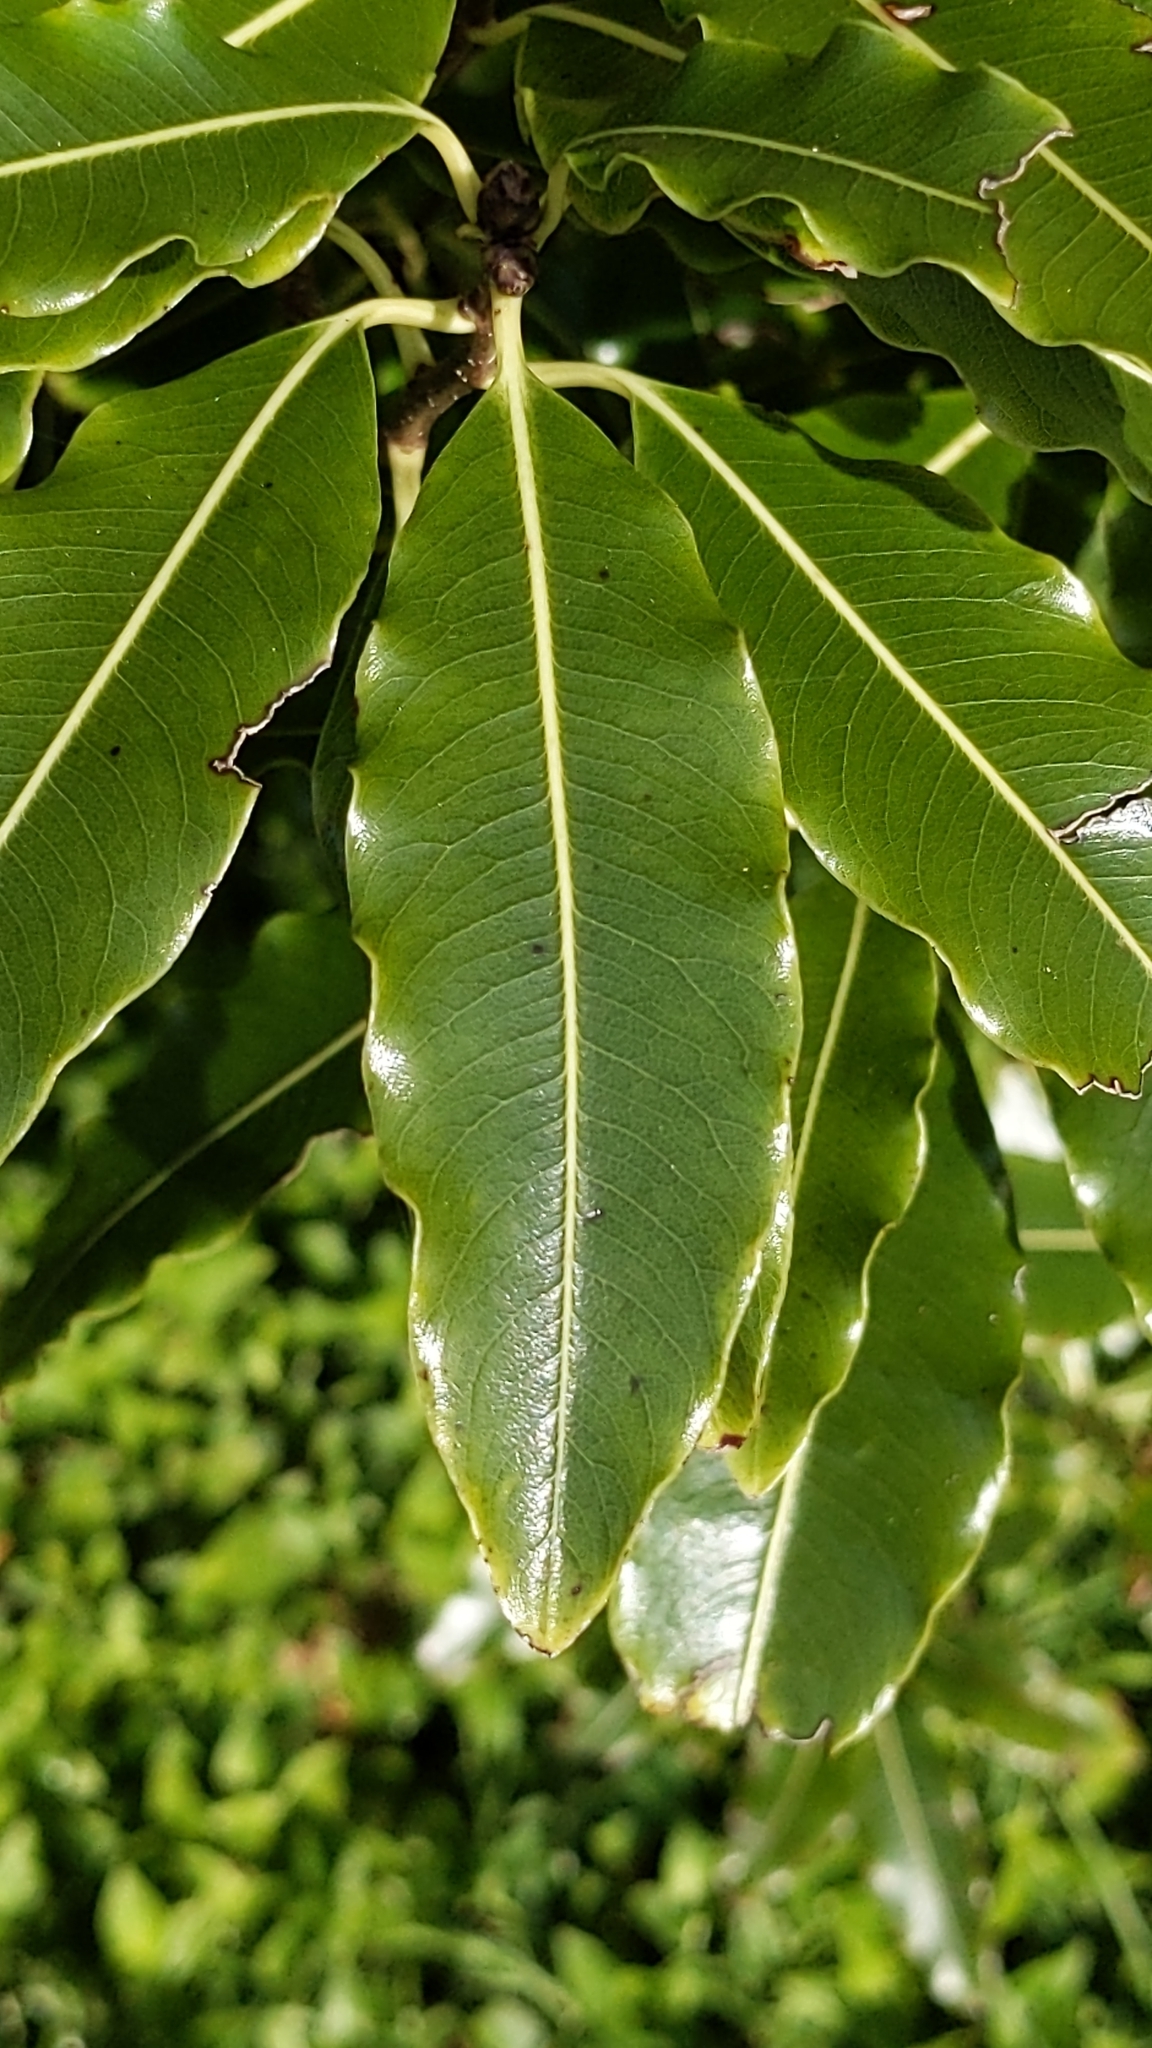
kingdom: Plantae
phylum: Tracheophyta
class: Magnoliopsida
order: Apiales
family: Pittosporaceae
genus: Pittosporum
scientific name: Pittosporum eugenioides
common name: Lemonwood
